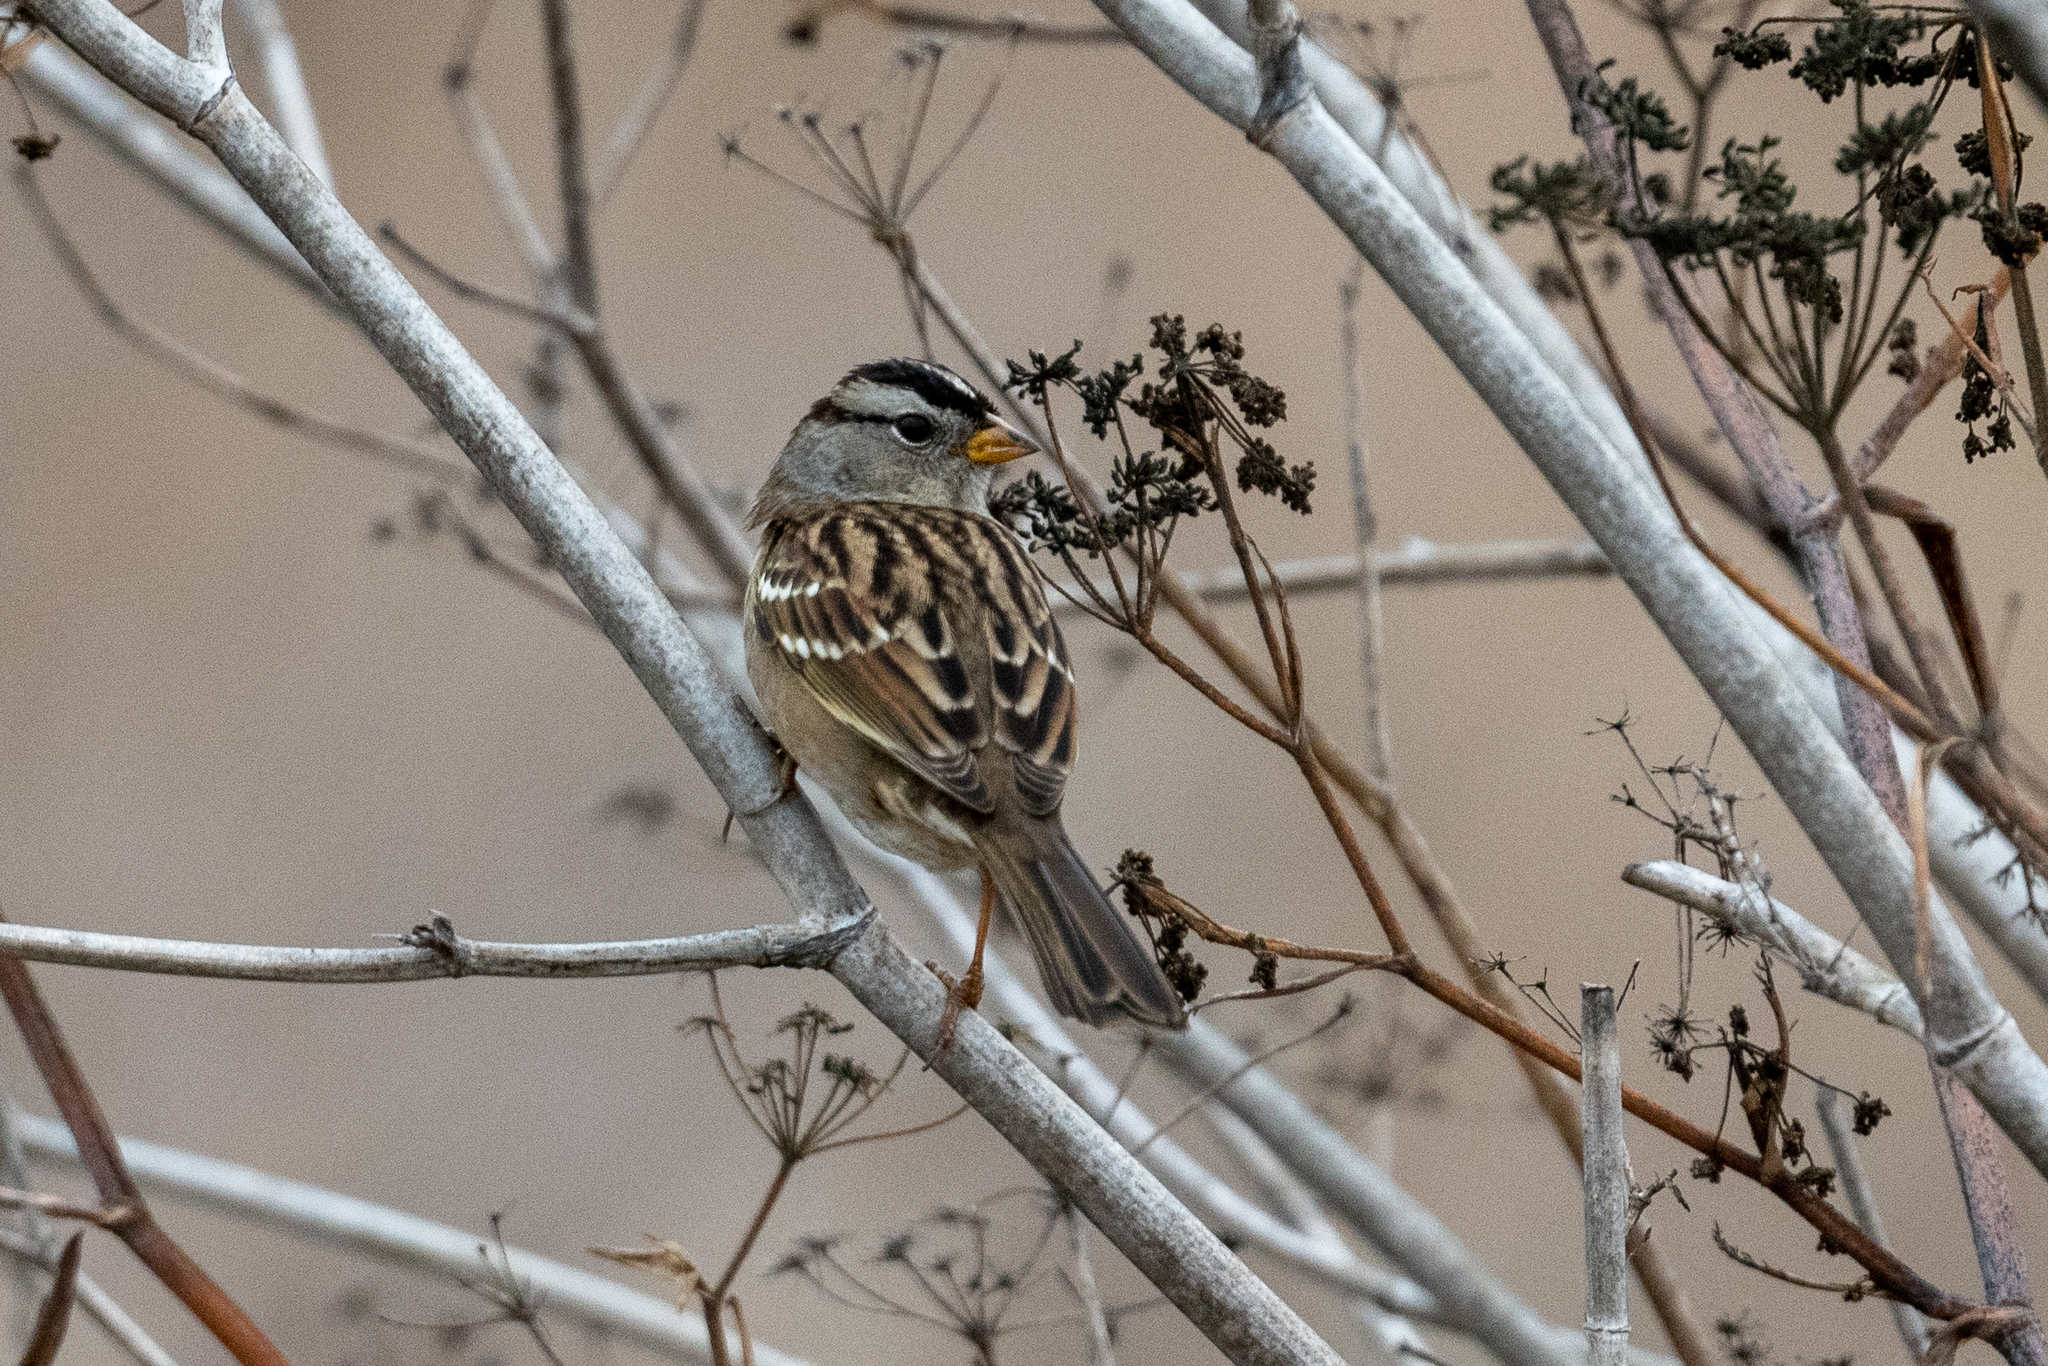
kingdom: Animalia
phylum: Chordata
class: Aves
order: Passeriformes
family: Passerellidae
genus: Zonotrichia
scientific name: Zonotrichia leucophrys
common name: White-crowned sparrow
